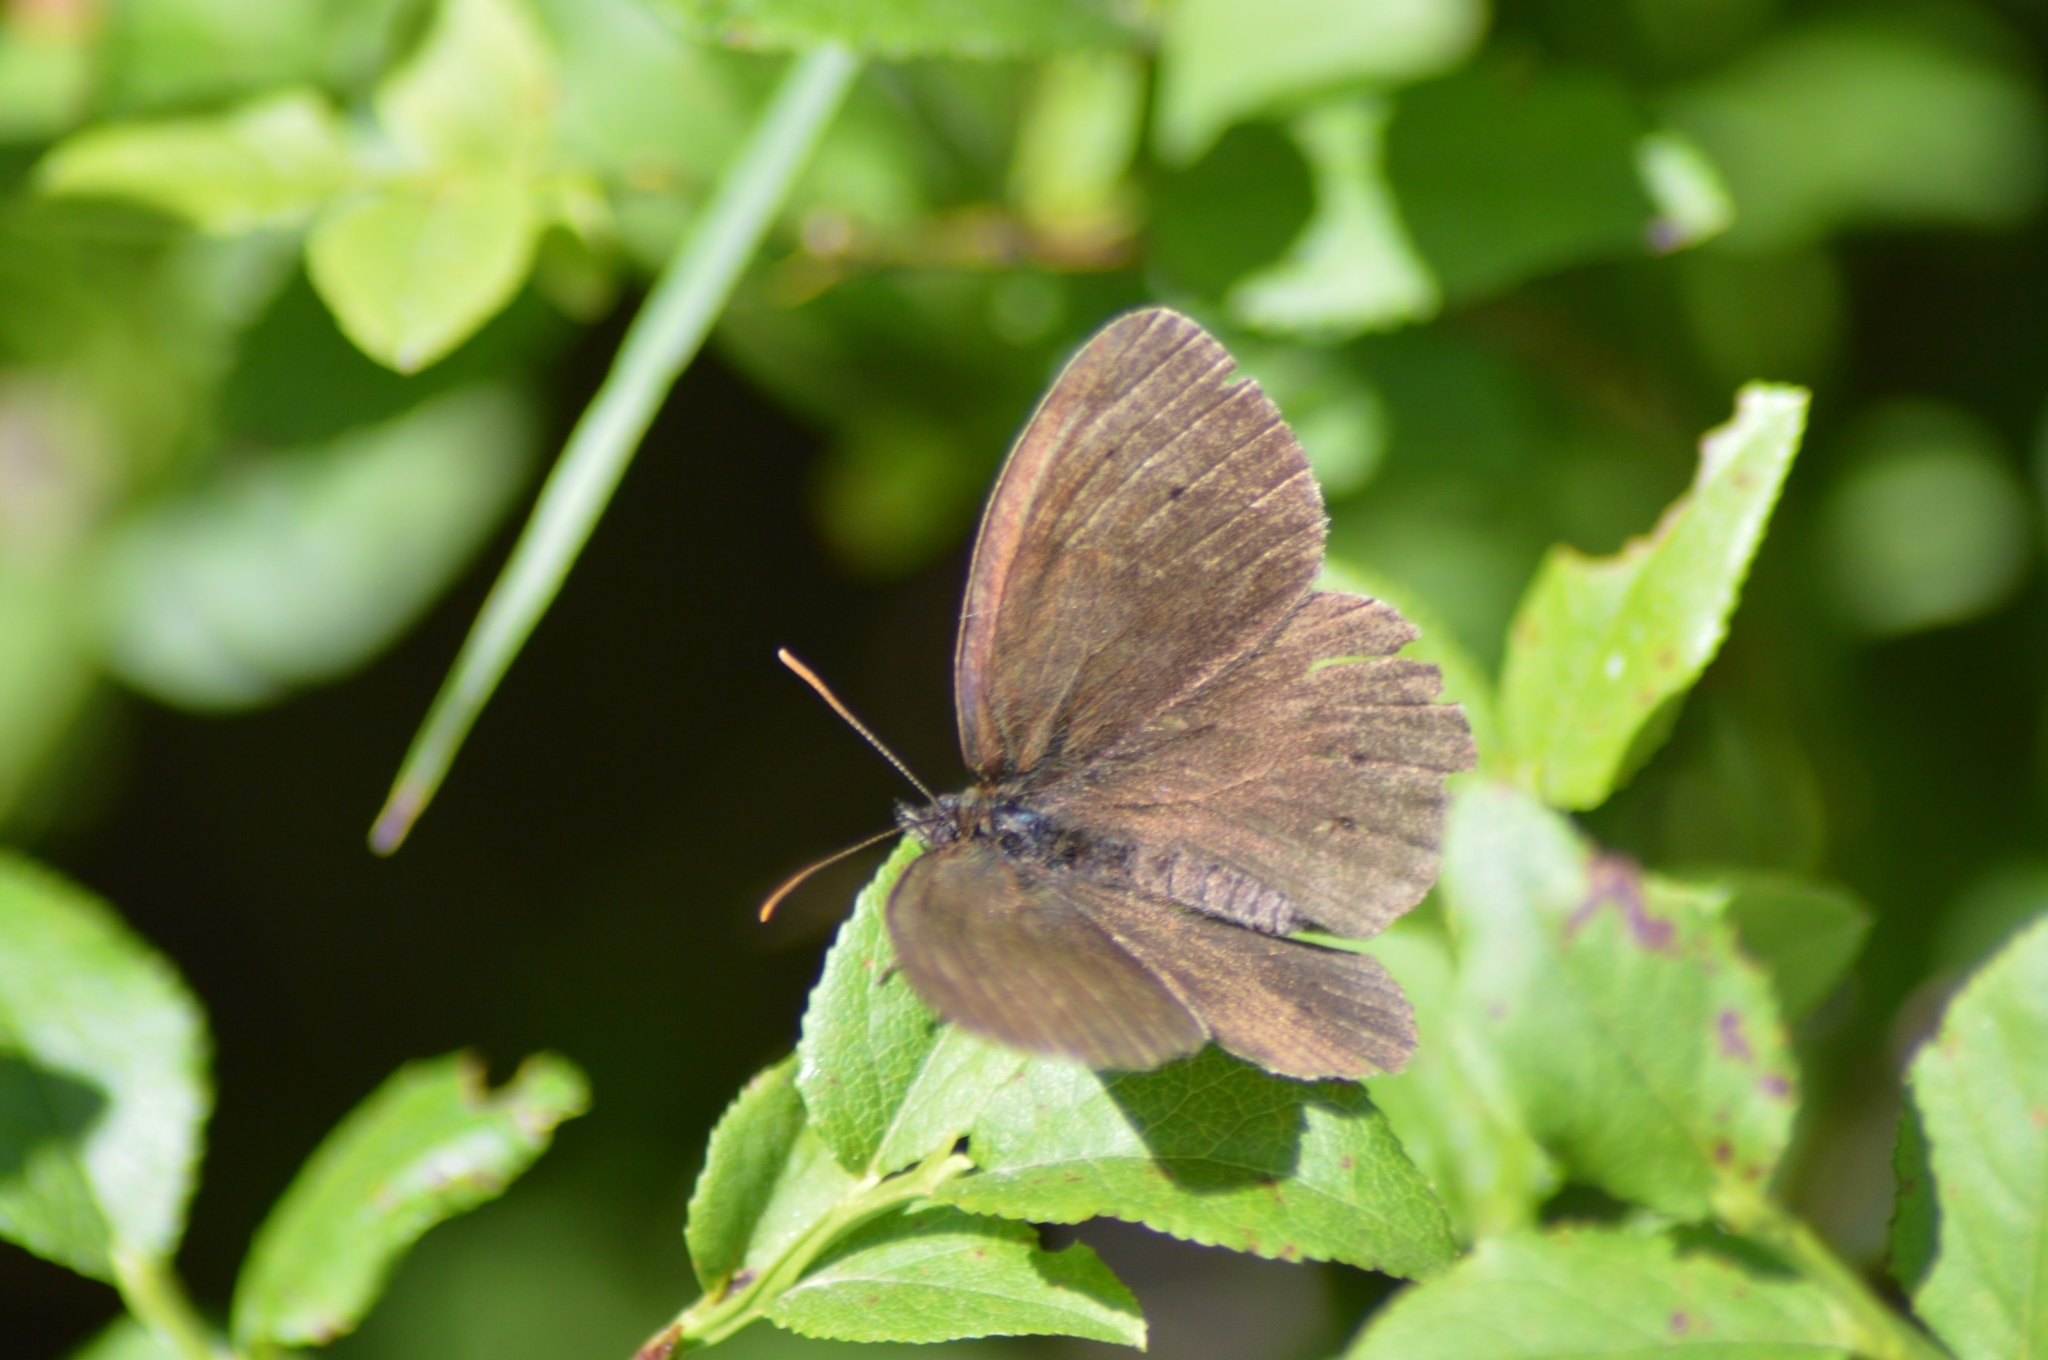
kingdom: Animalia
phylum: Arthropoda
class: Insecta
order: Lepidoptera
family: Nymphalidae
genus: Aphantopus
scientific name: Aphantopus hyperantus
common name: Ringlet
